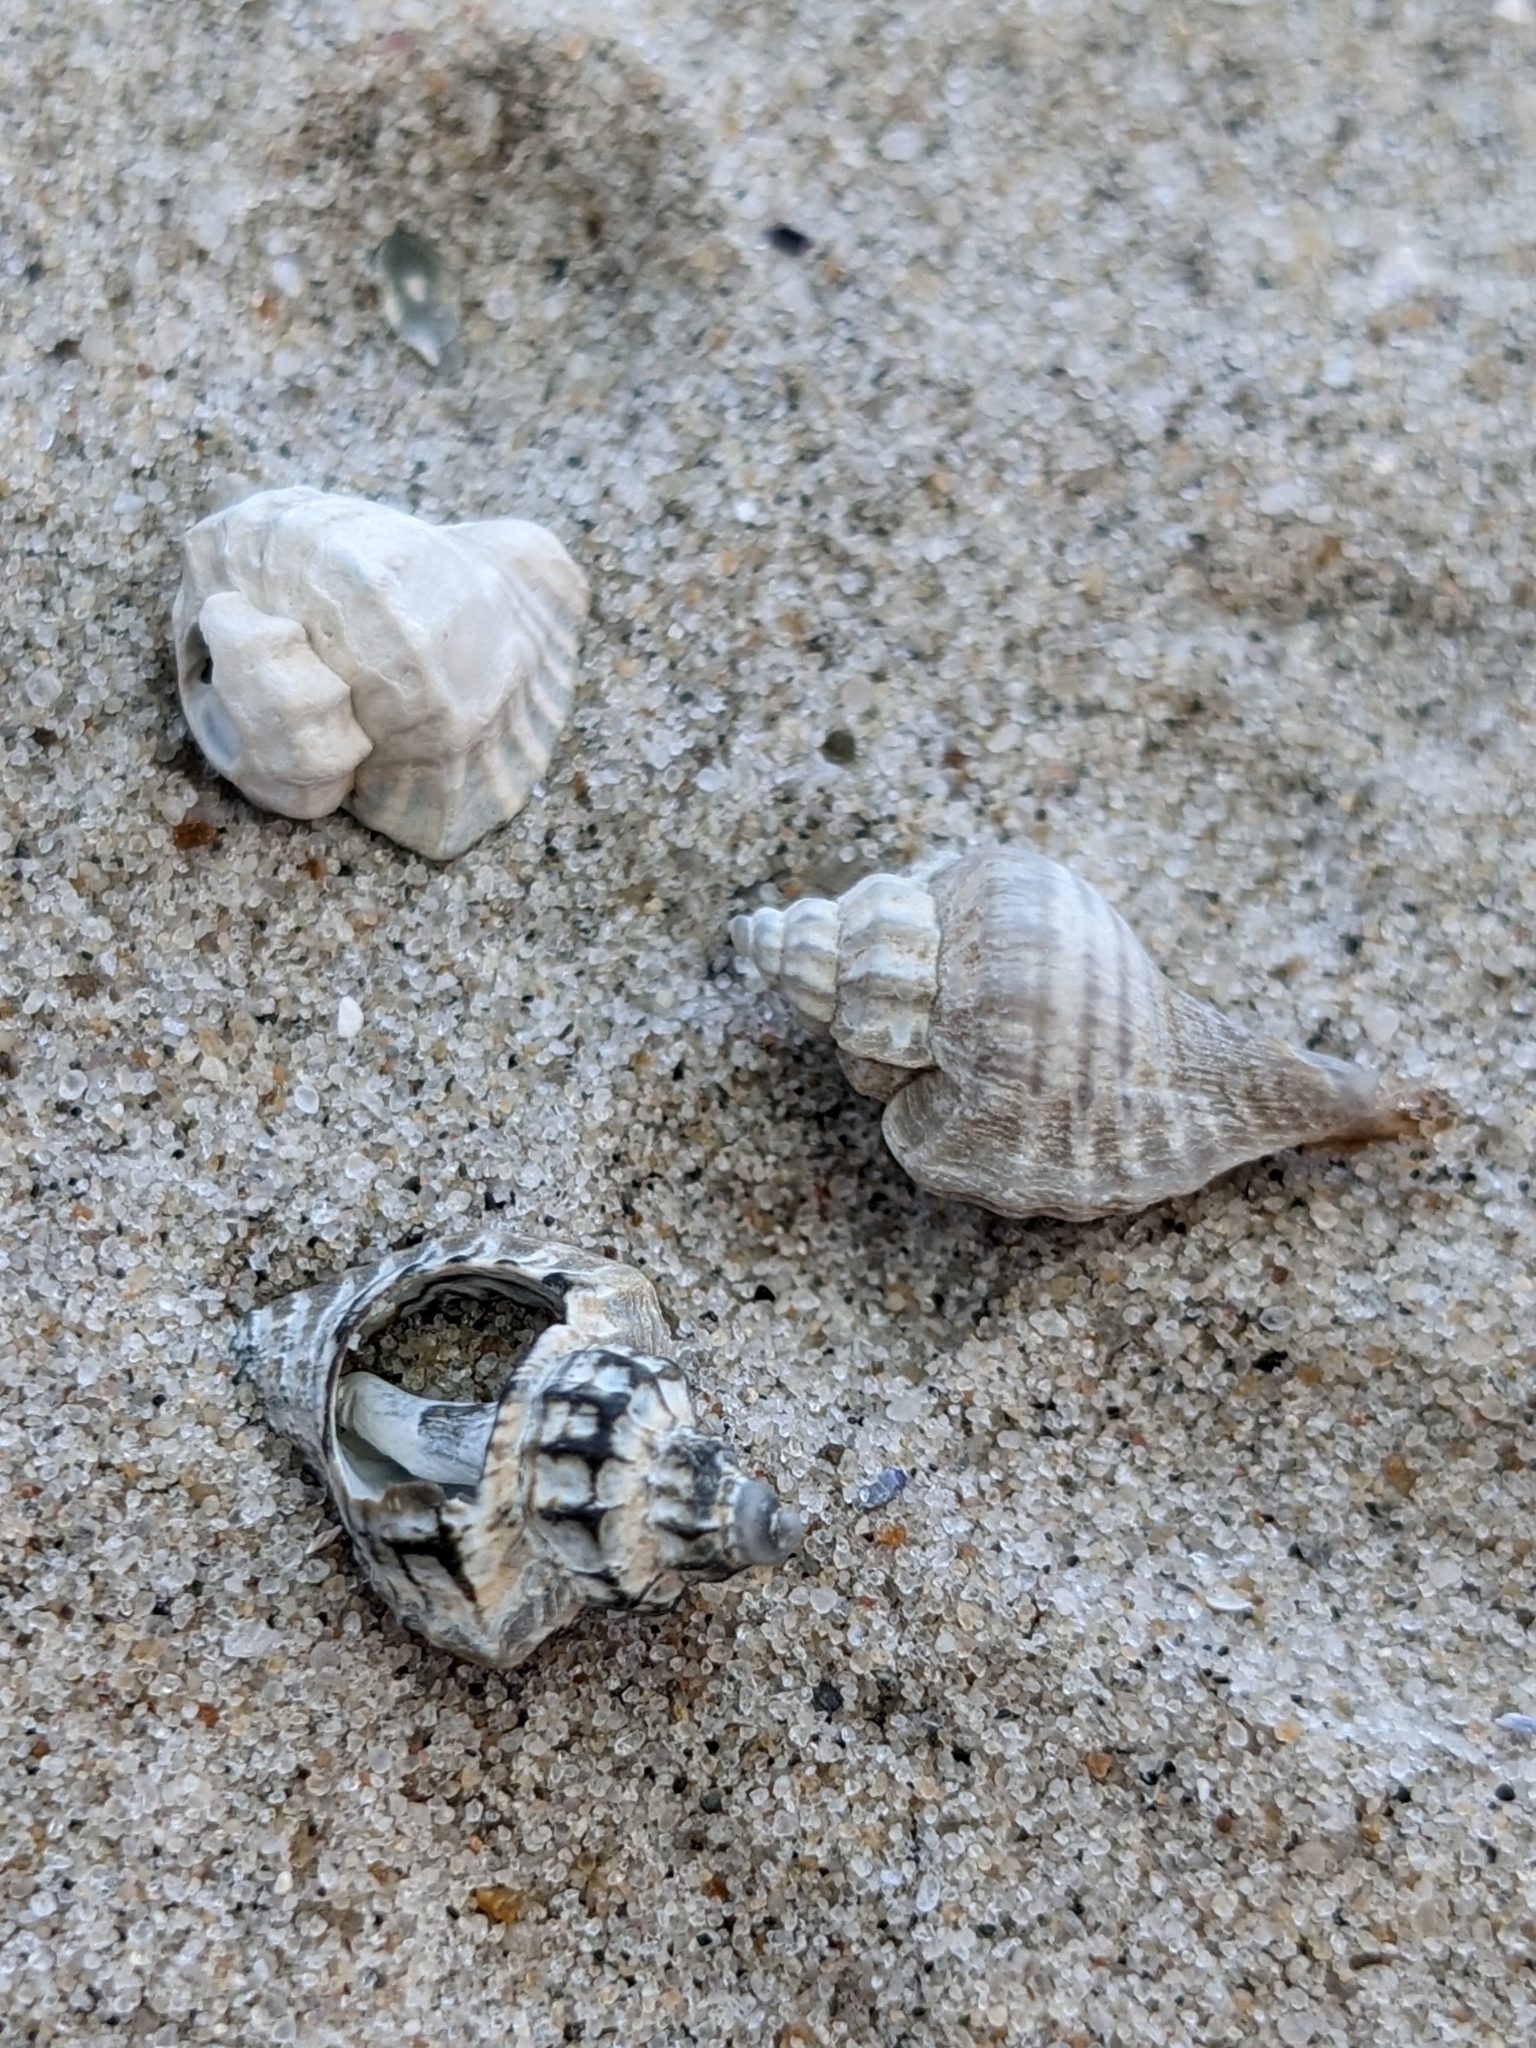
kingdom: Animalia
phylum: Mollusca
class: Gastropoda
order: Neogastropoda
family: Muricidae
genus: Eupleura
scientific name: Eupleura caudata
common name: Thick-lip drill
